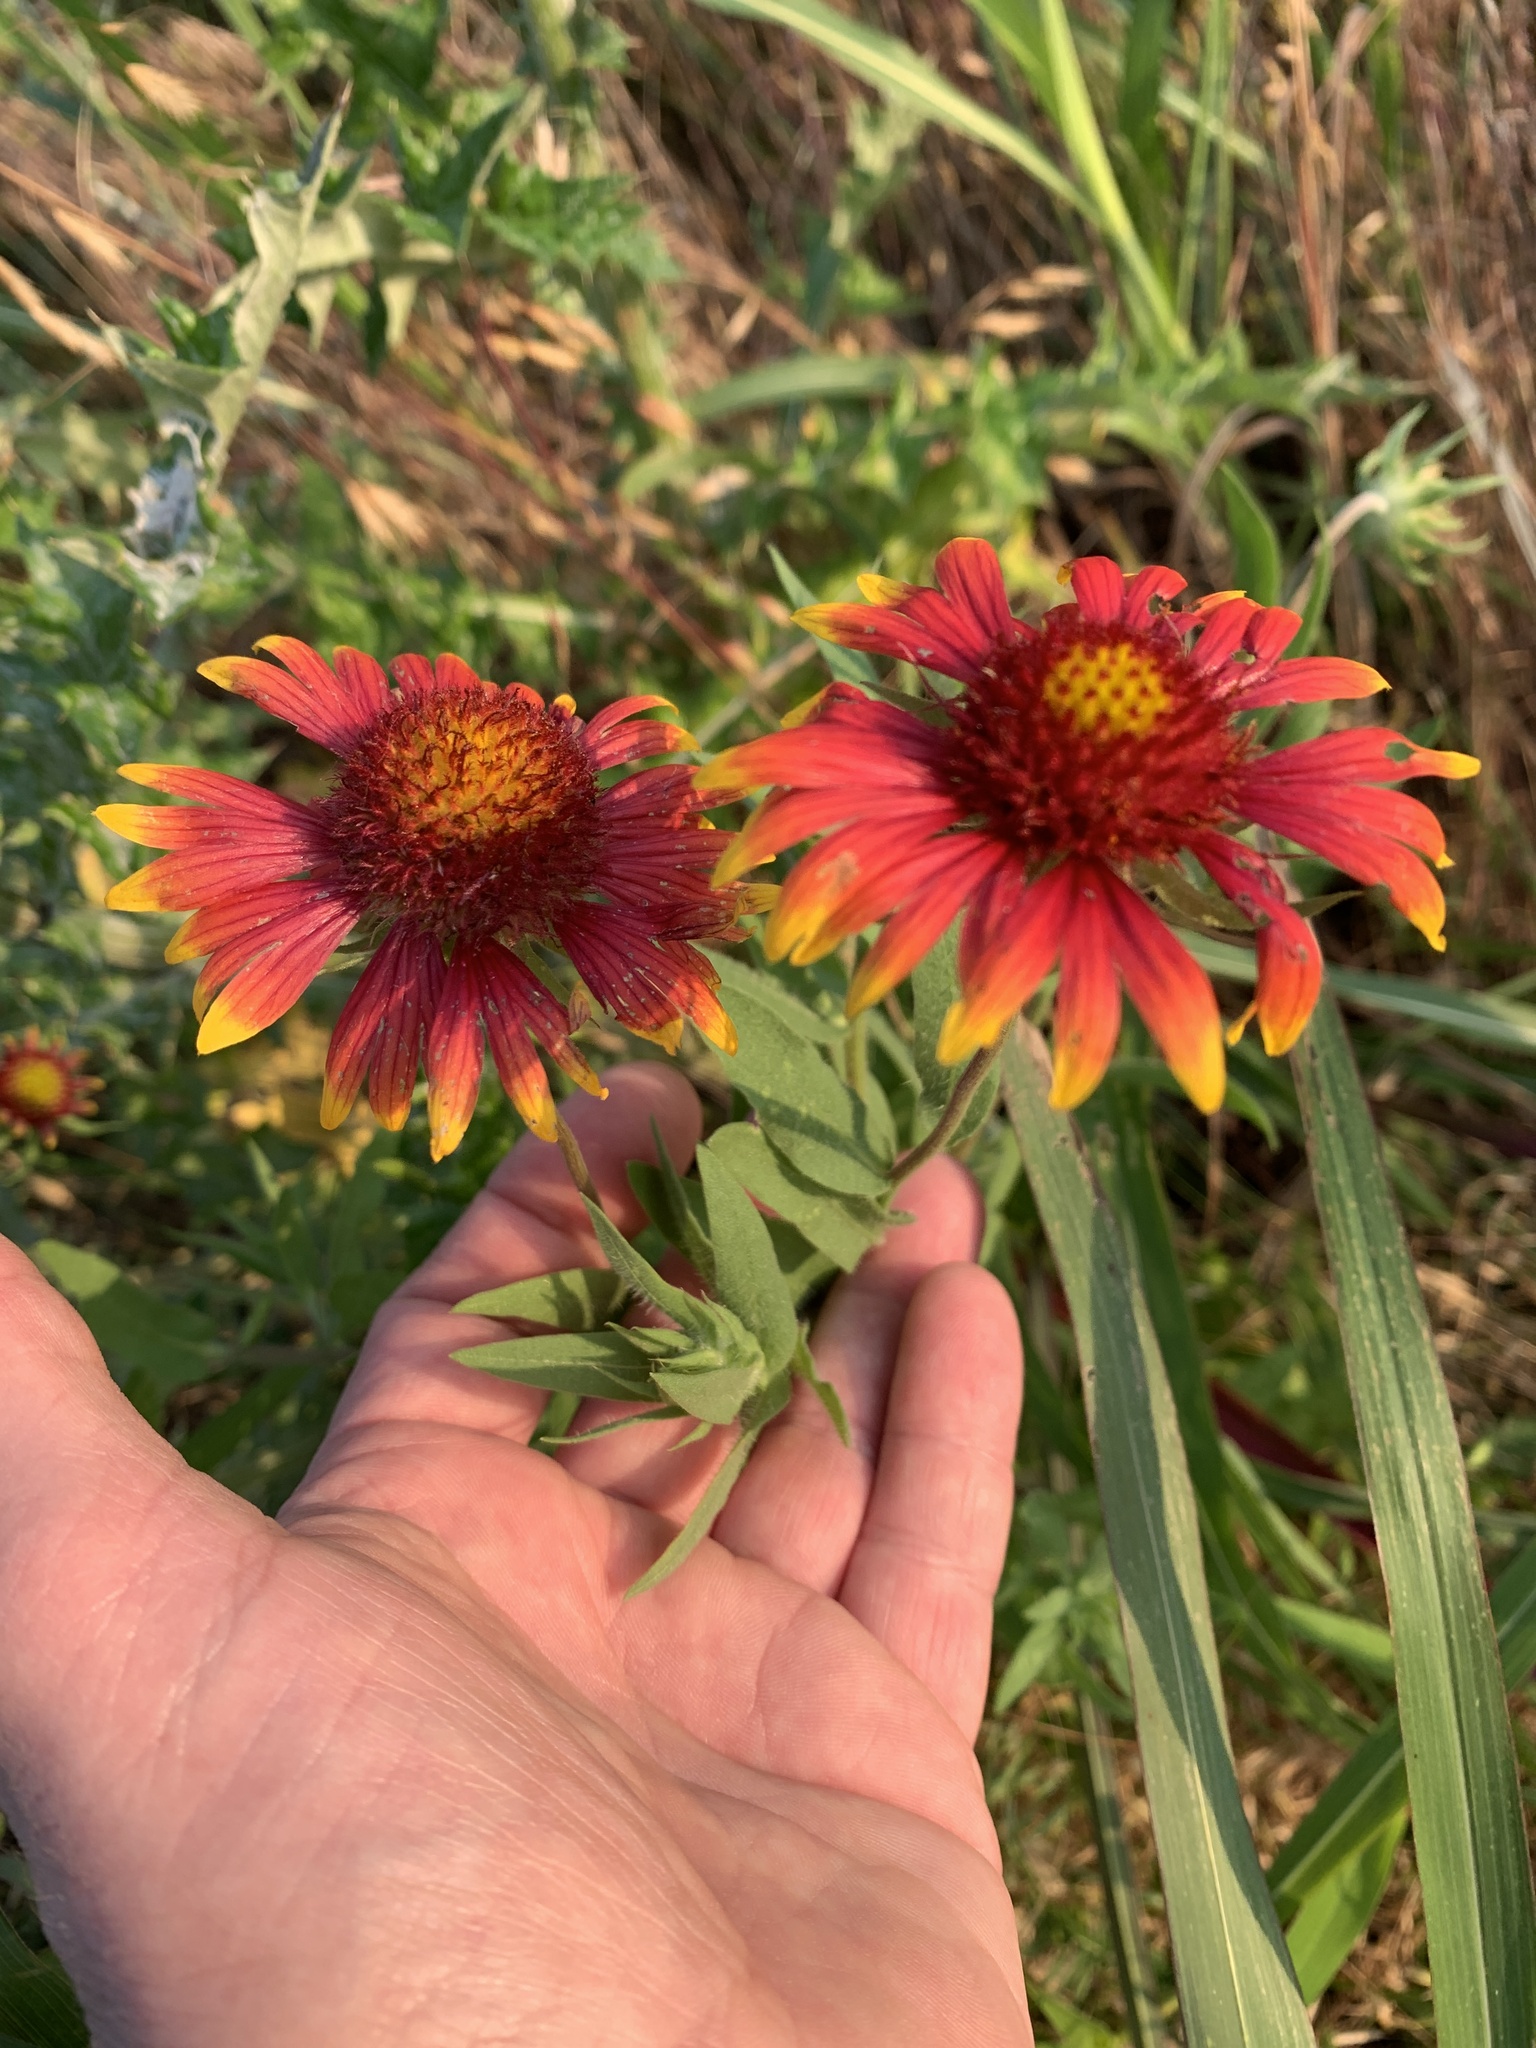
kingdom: Plantae
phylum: Tracheophyta
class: Magnoliopsida
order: Asterales
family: Asteraceae
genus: Gaillardia
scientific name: Gaillardia pulchella
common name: Firewheel
